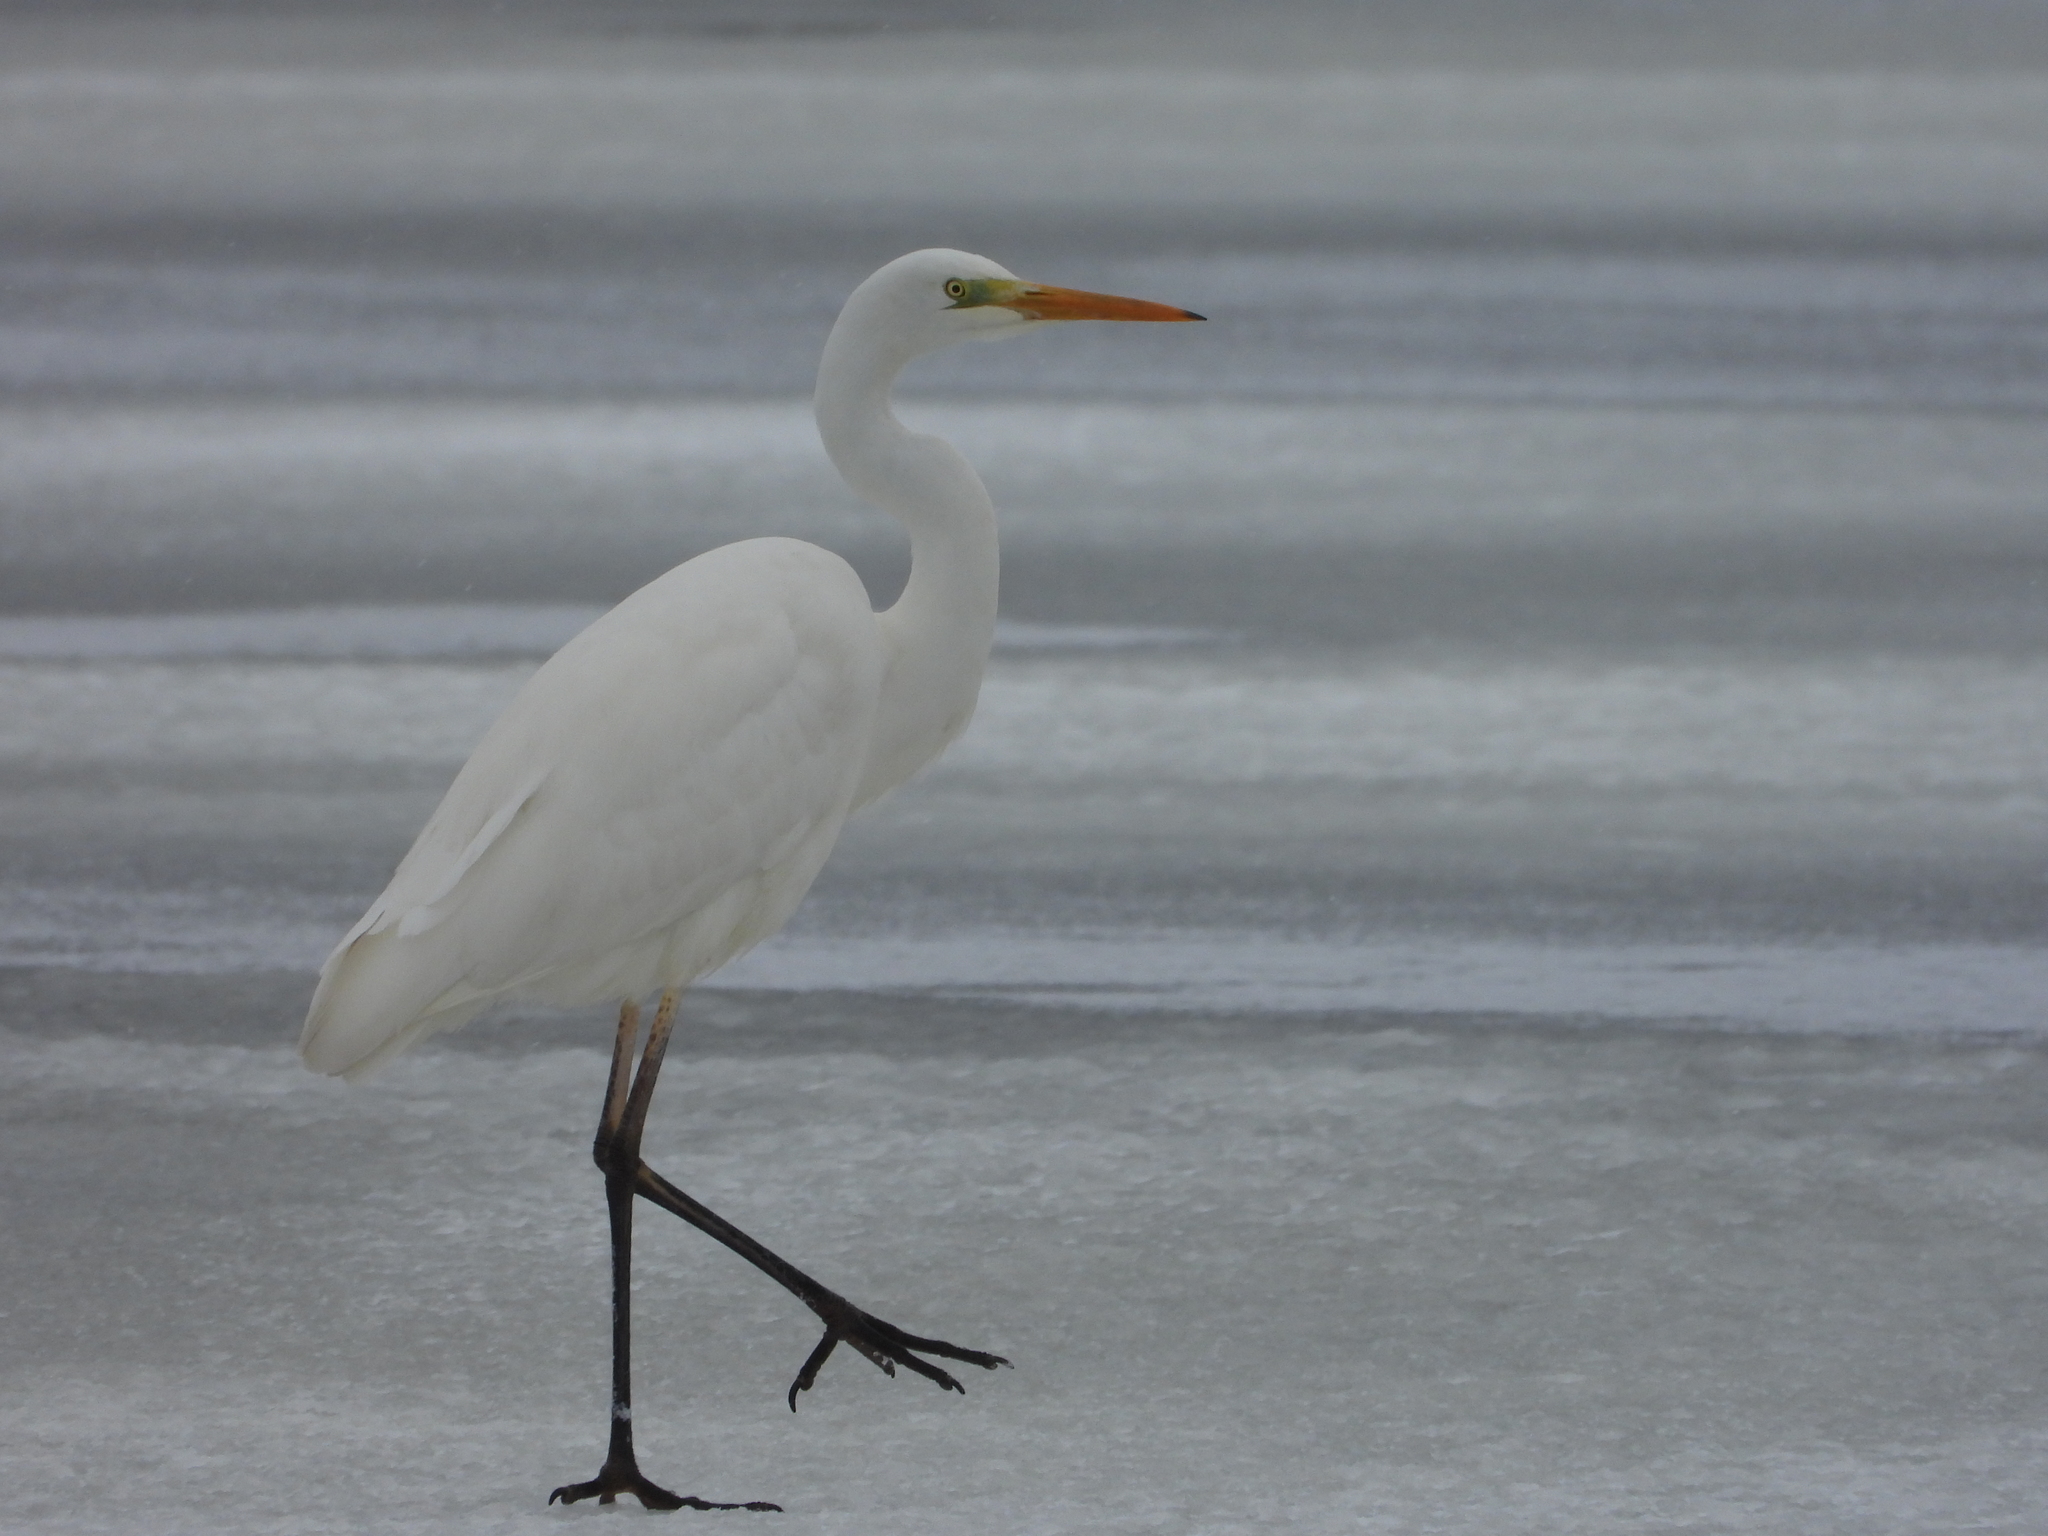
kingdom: Animalia
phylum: Chordata
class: Aves
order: Pelecaniformes
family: Ardeidae
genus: Ardea
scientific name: Ardea alba
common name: Great egret
